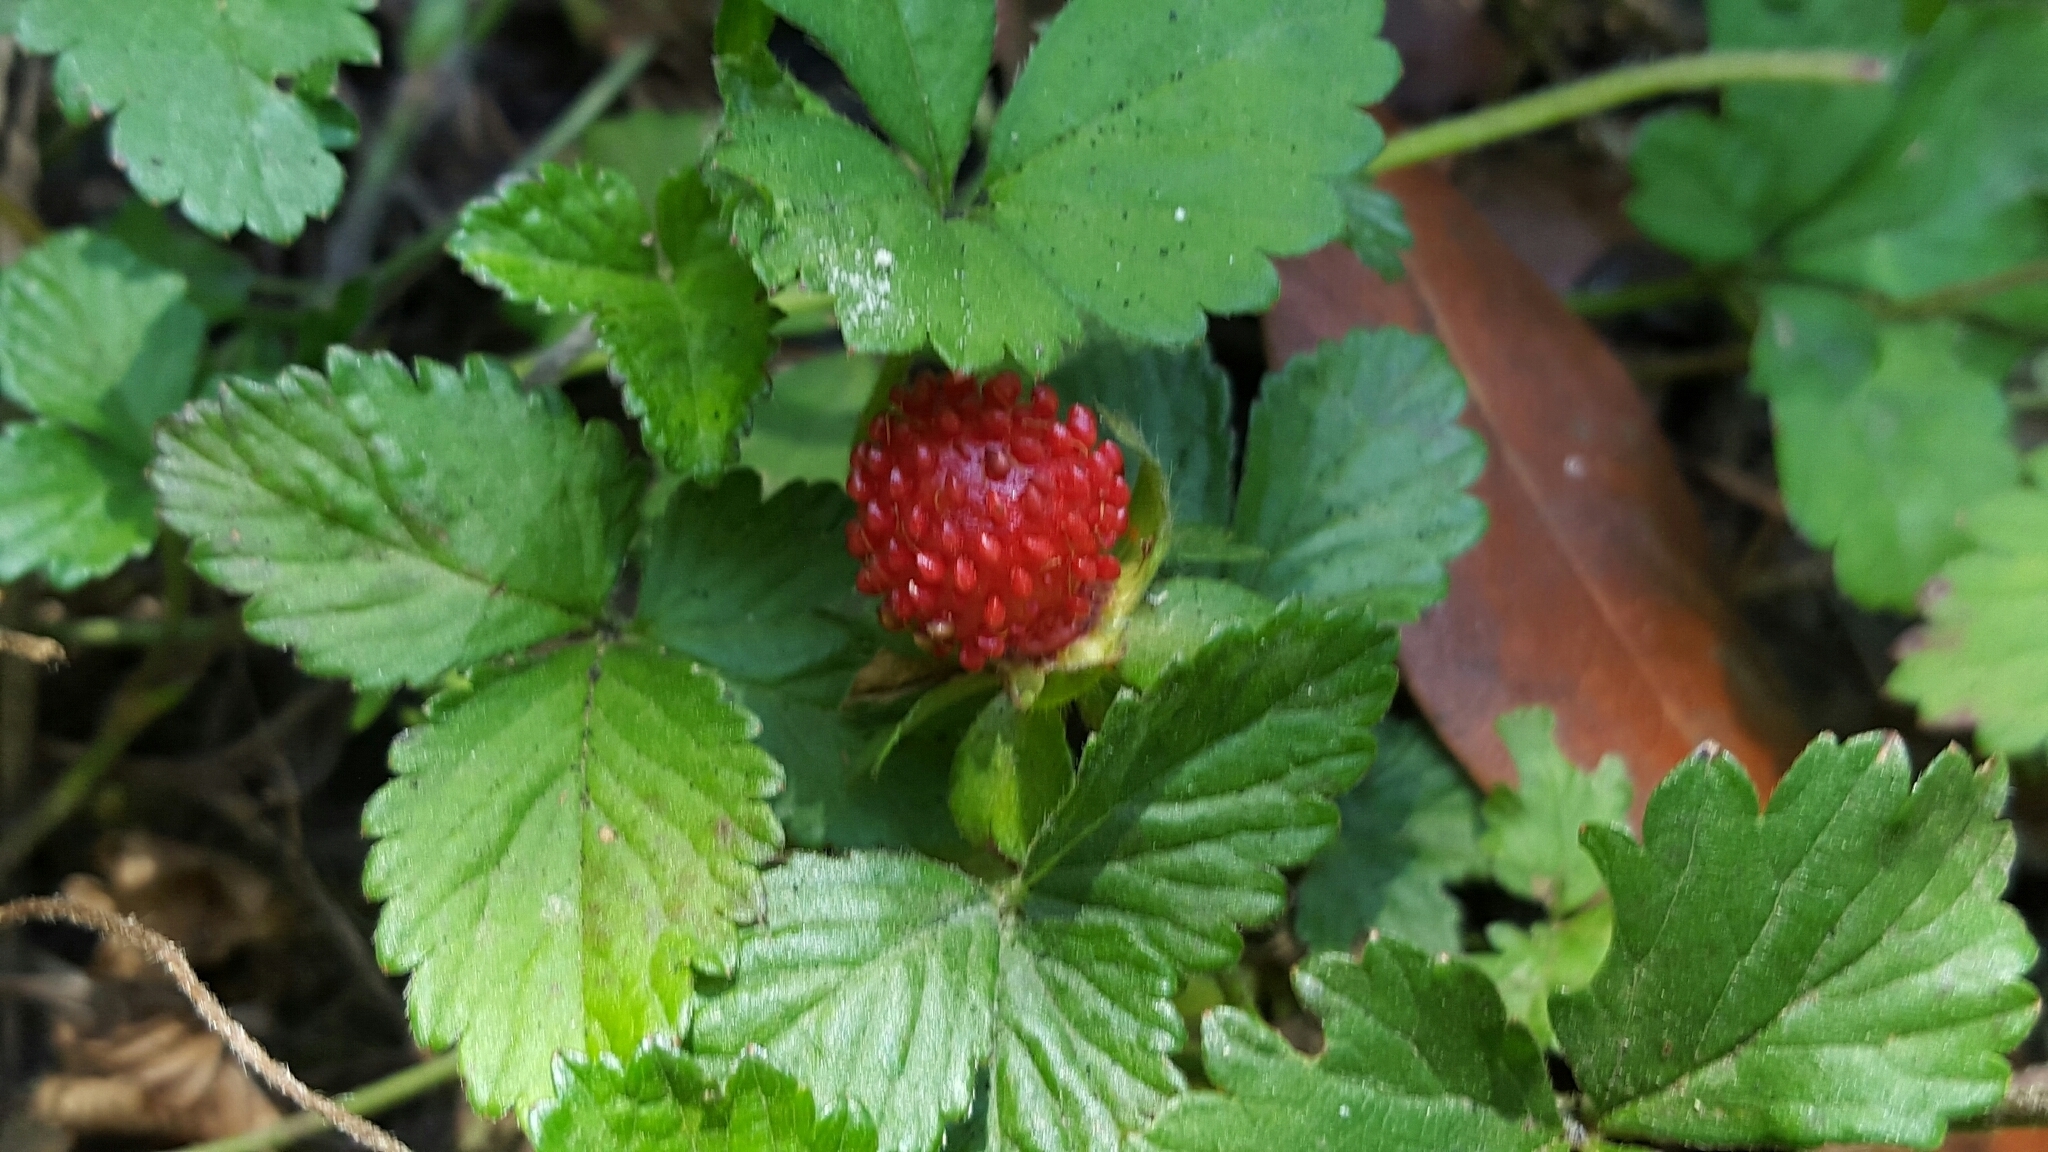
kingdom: Plantae
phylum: Tracheophyta
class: Magnoliopsida
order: Rosales
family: Rosaceae
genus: Potentilla
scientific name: Potentilla indica
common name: Yellow-flowered strawberry
